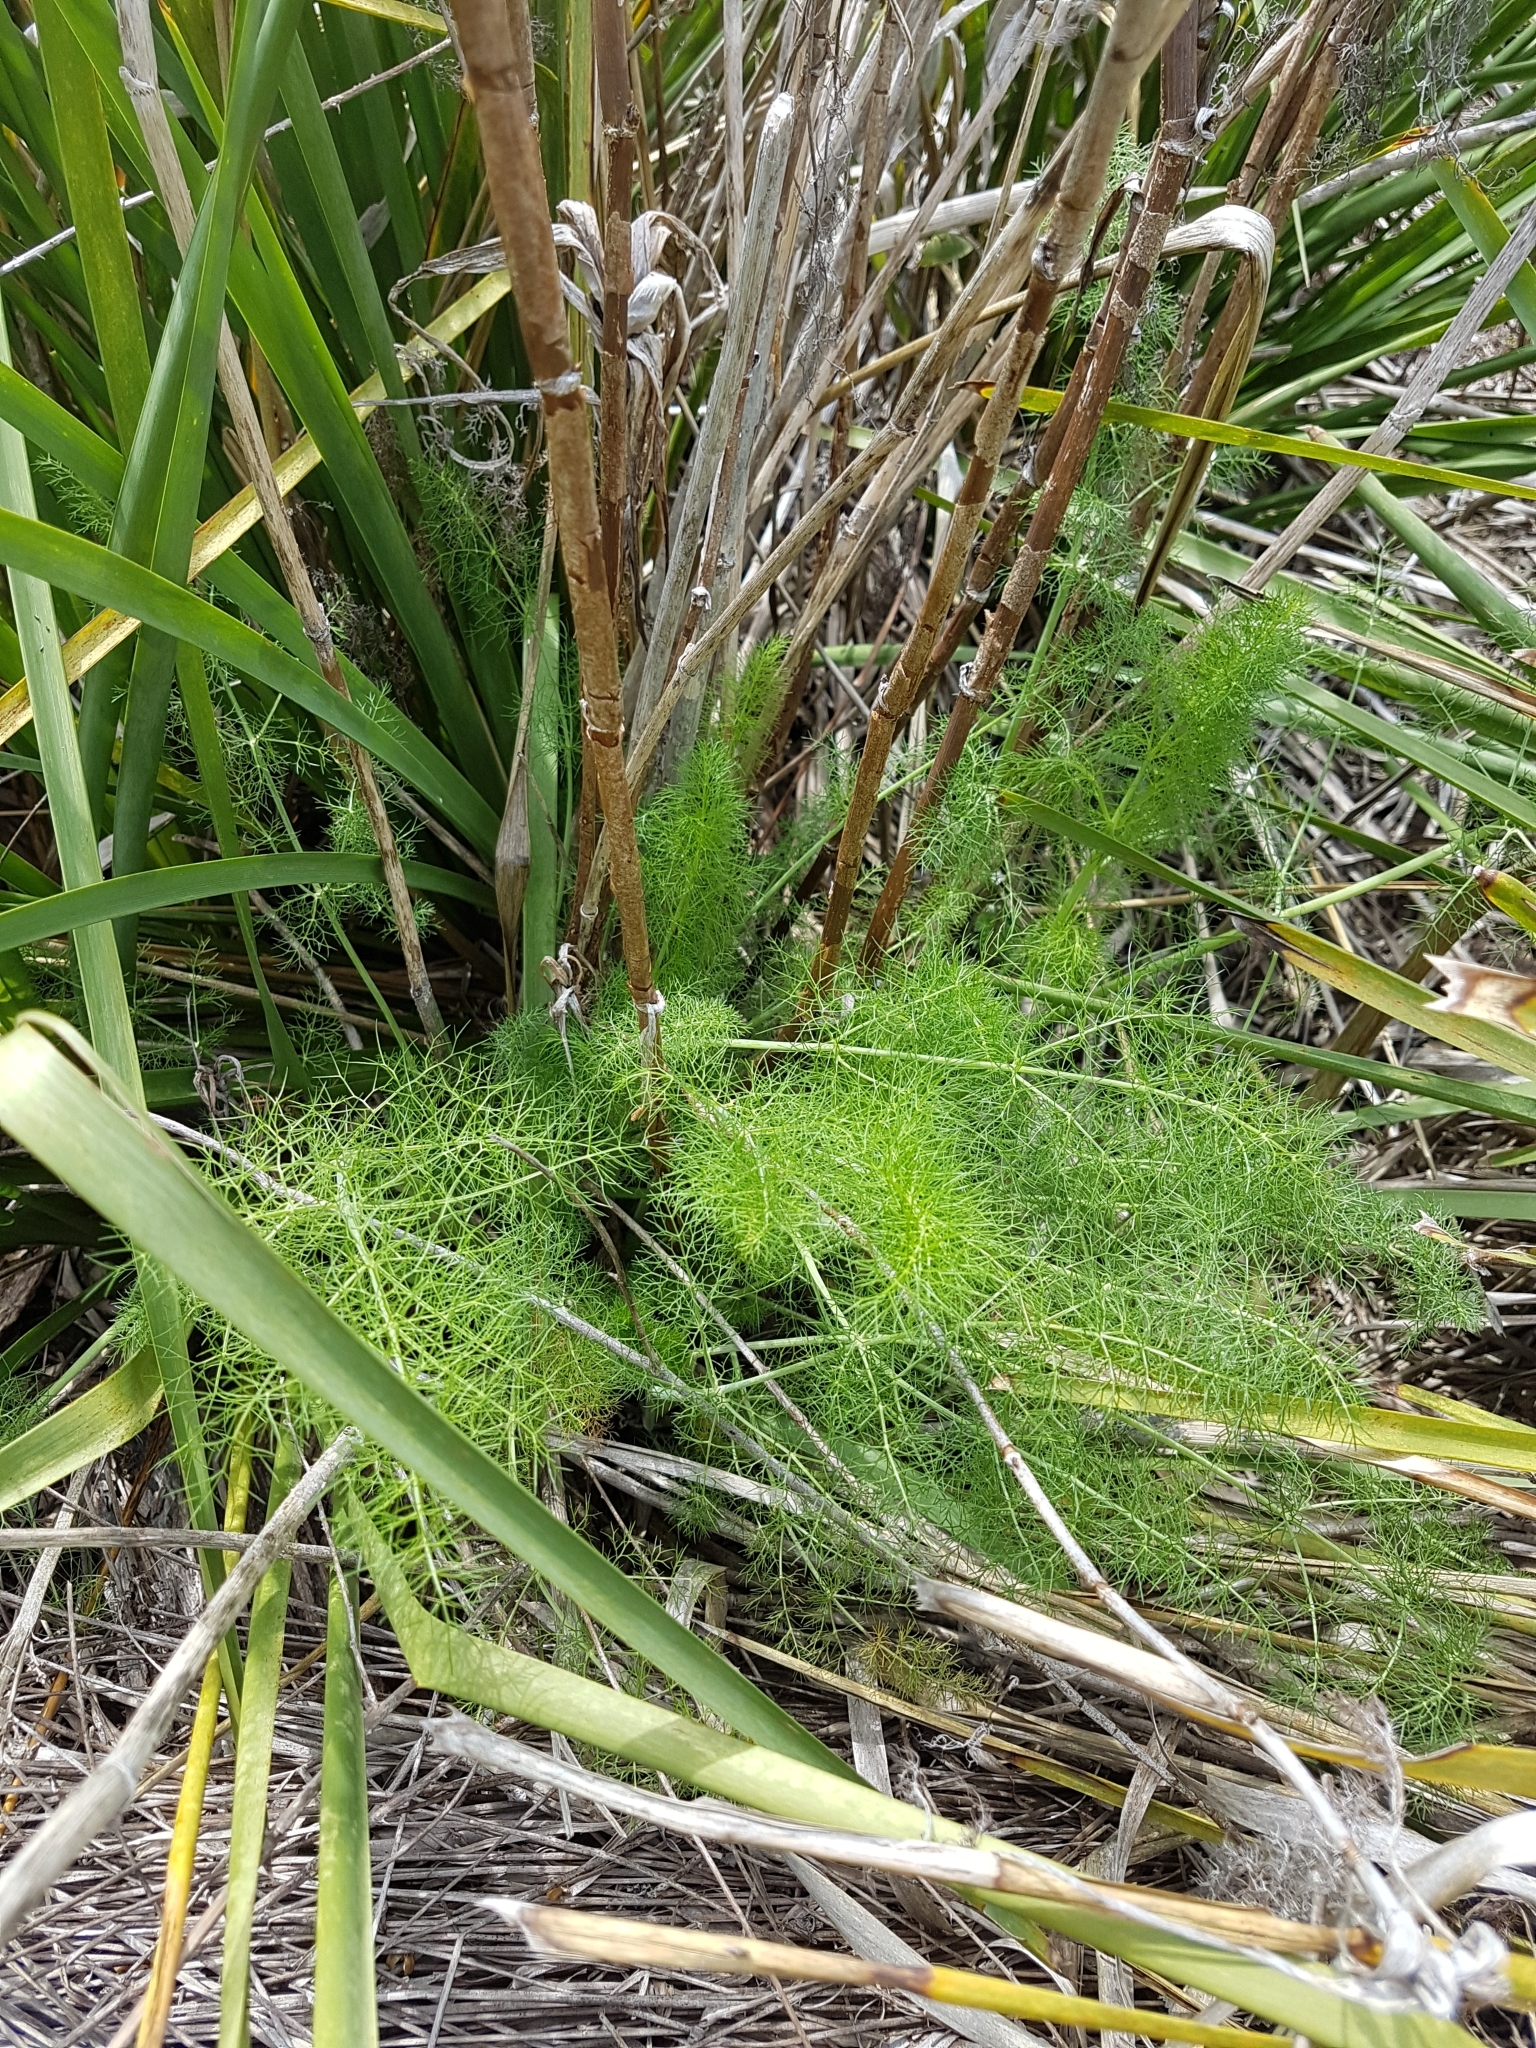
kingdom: Plantae
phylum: Tracheophyta
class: Magnoliopsida
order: Apiales
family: Apiaceae
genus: Foeniculum
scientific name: Foeniculum vulgare
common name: Fennel
